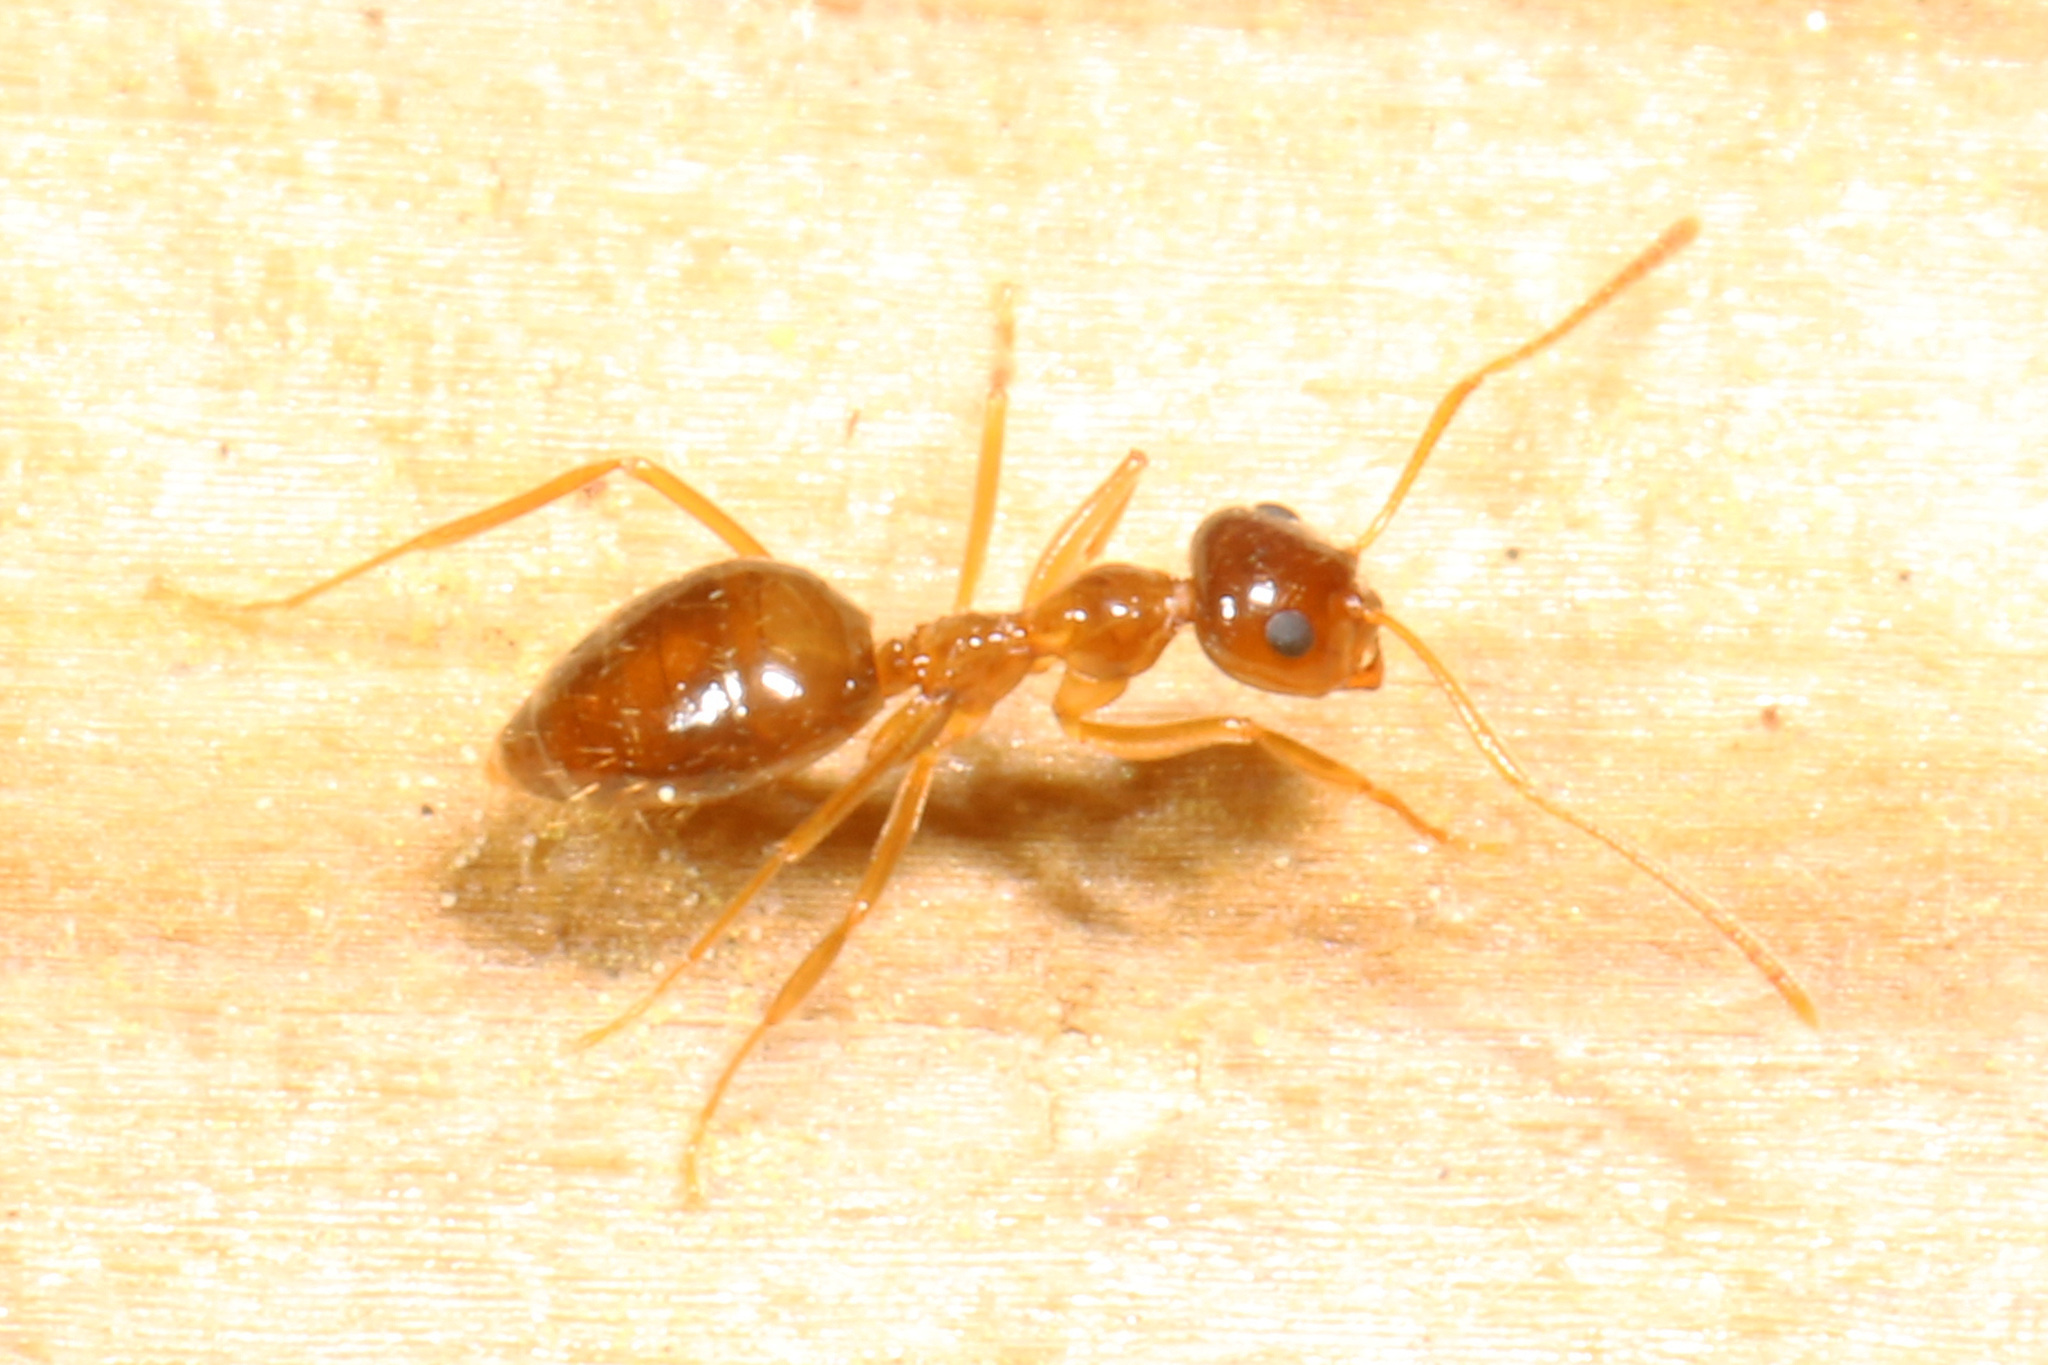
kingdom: Animalia
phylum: Arthropoda
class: Insecta
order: Hymenoptera
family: Formicidae
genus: Prenolepis
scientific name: Prenolepis imparis
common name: Small honey ant
